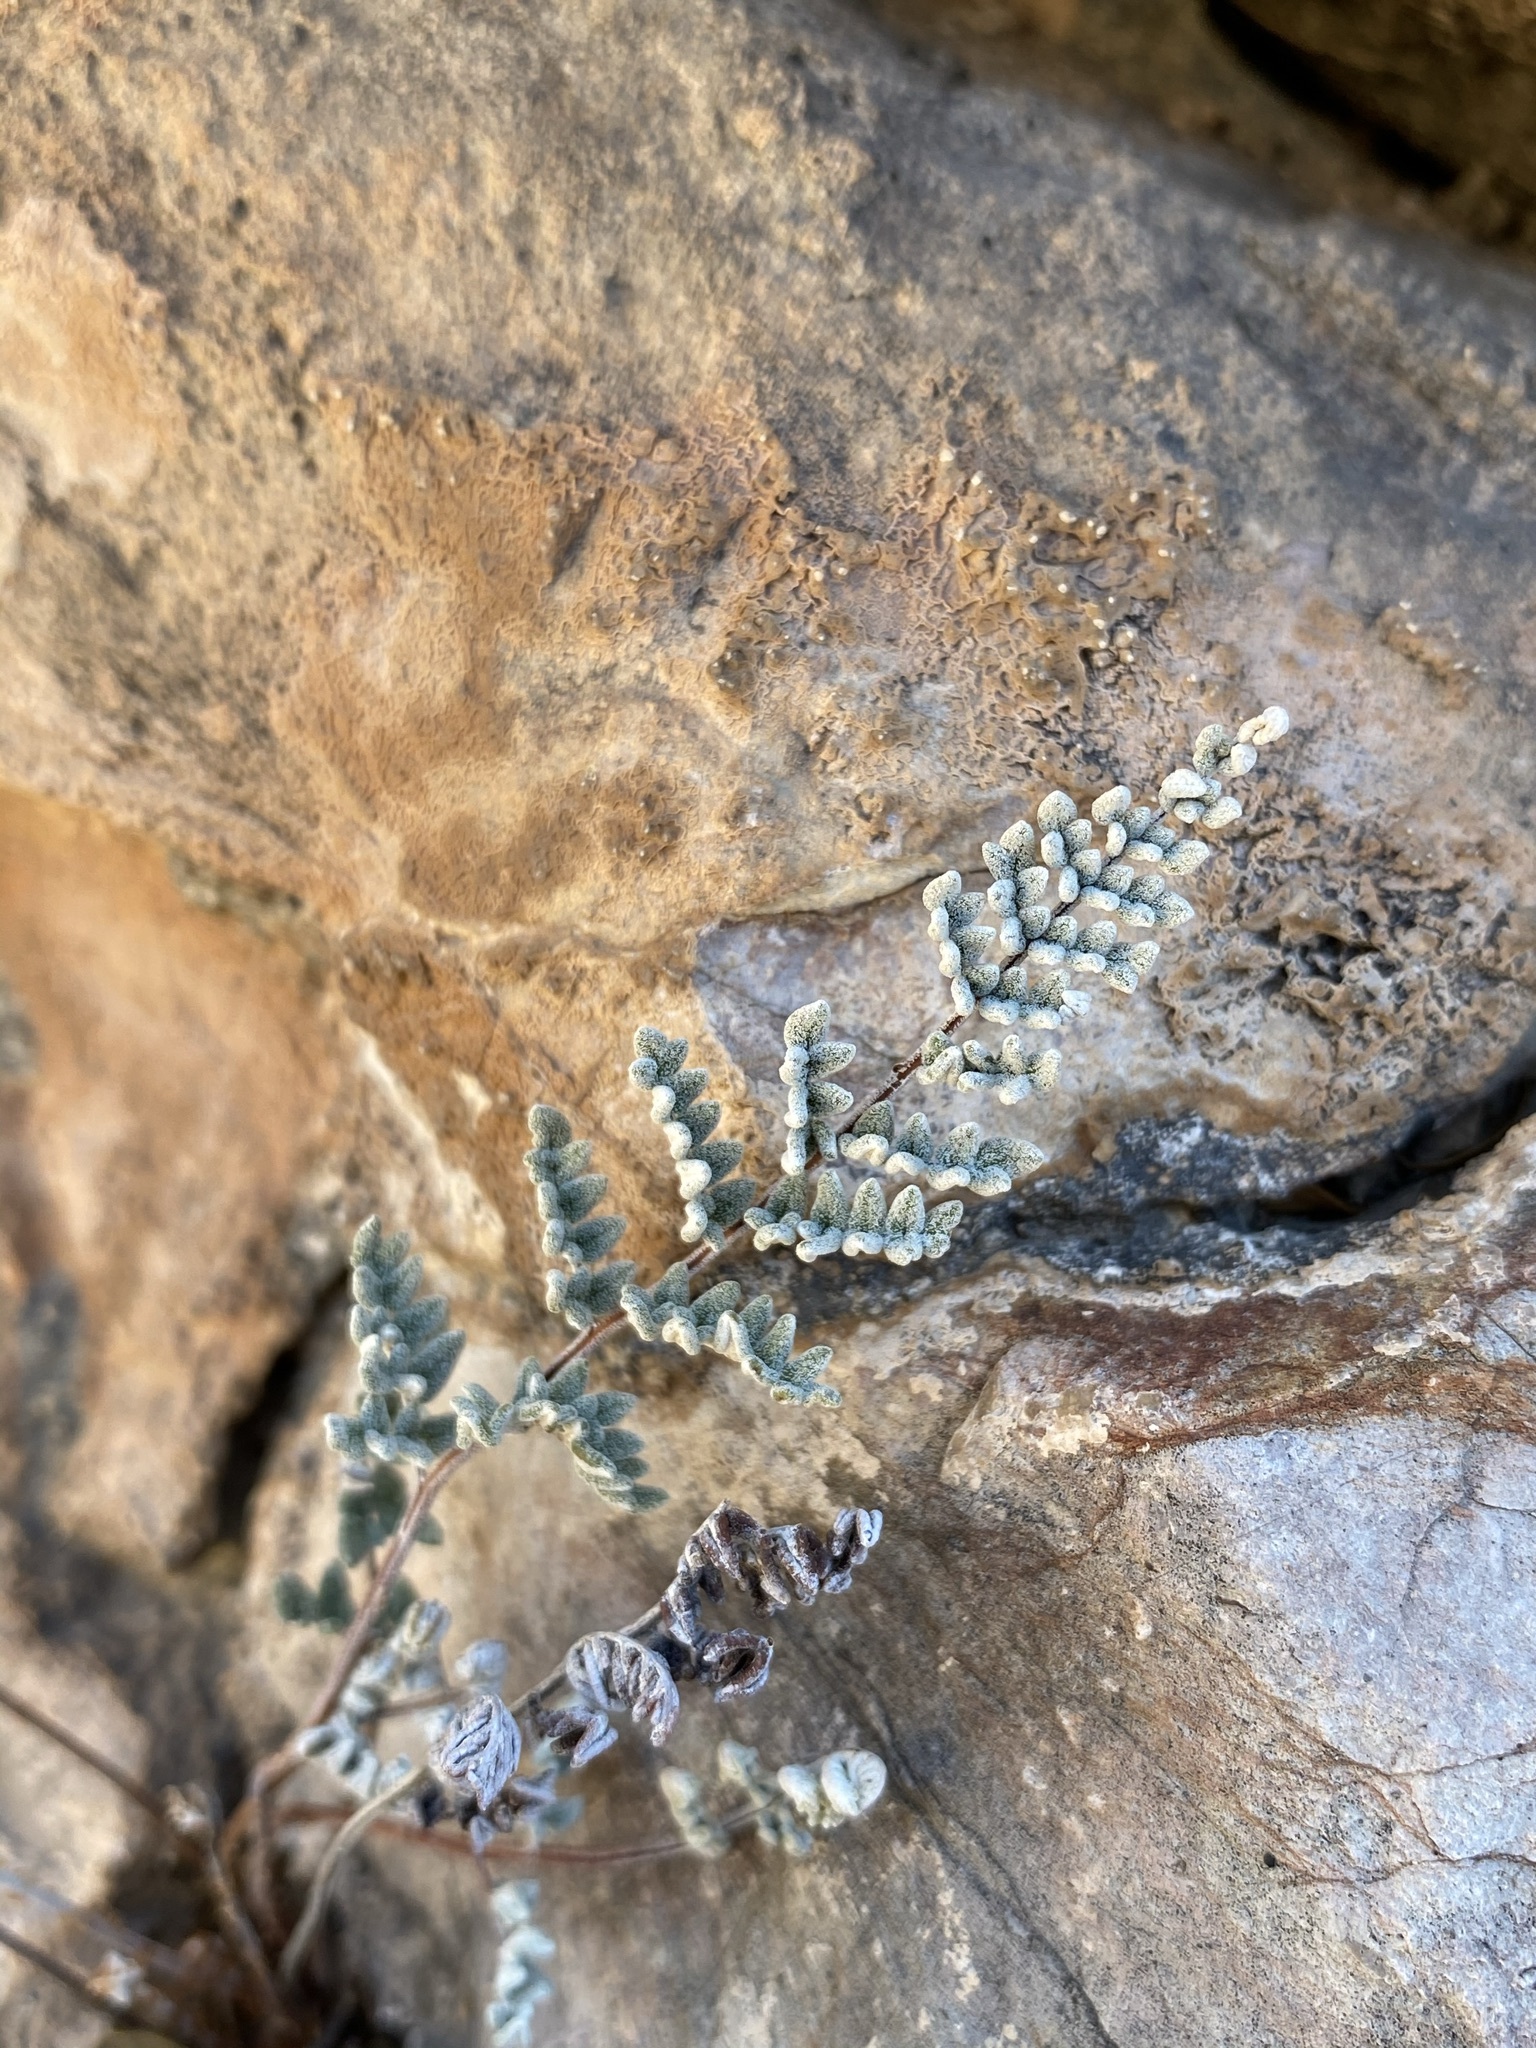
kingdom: Plantae
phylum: Tracheophyta
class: Polypodiopsida
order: Polypodiales
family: Pteridaceae
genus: Notholaena
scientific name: Notholaena greggii
